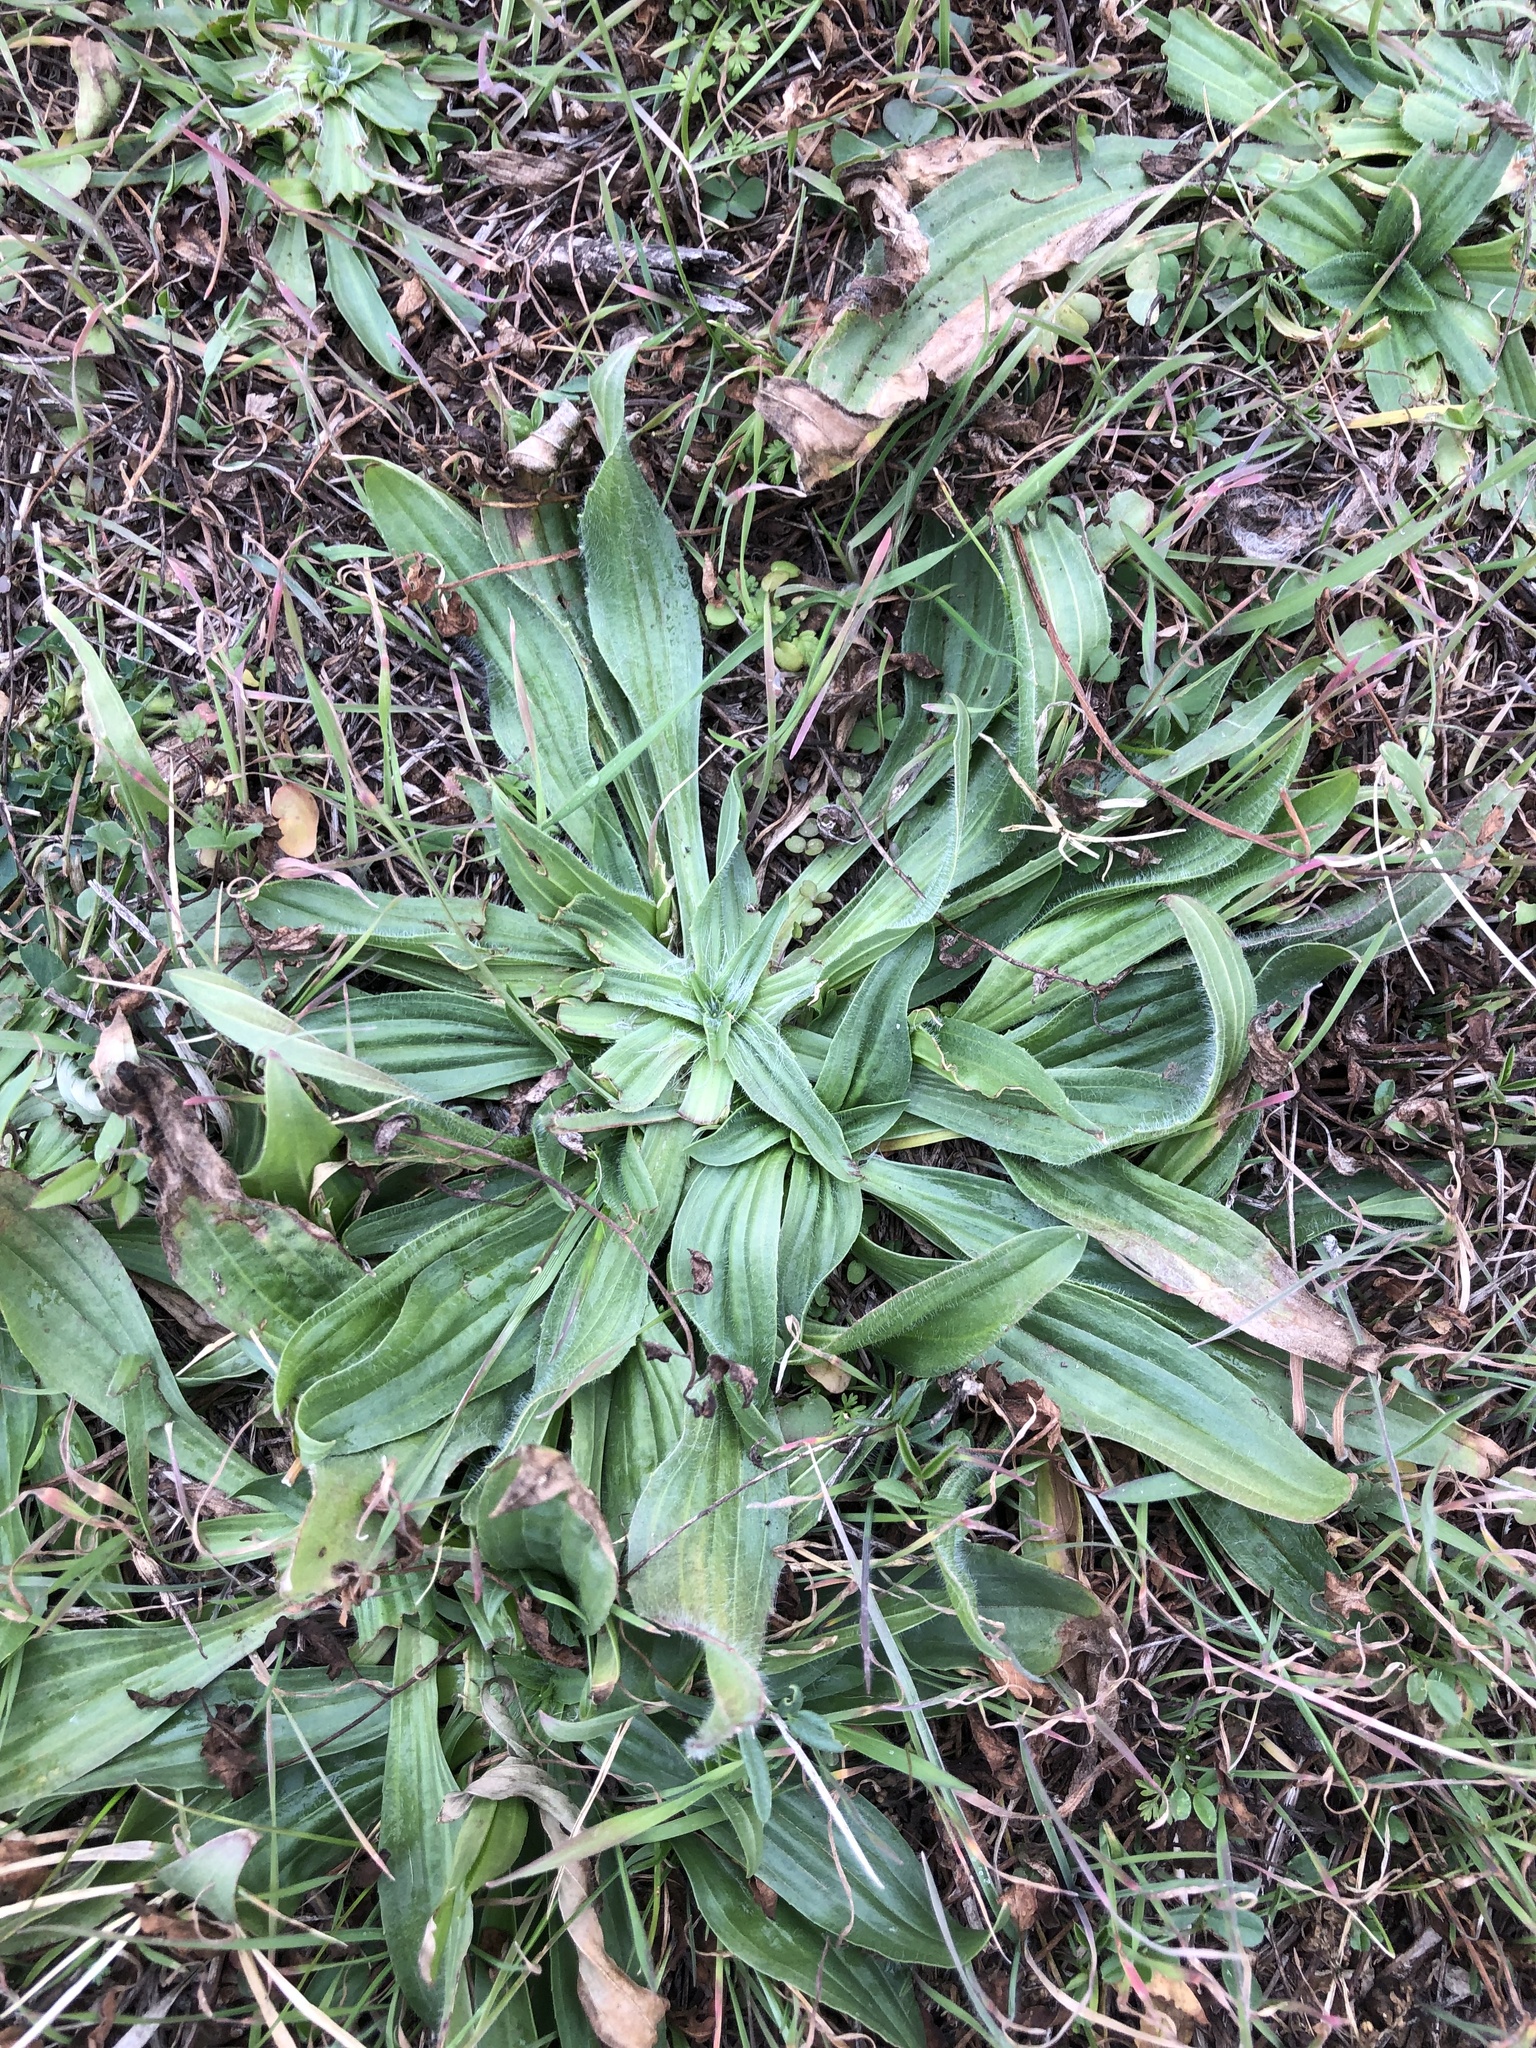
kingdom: Plantae
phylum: Tracheophyta
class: Magnoliopsida
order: Lamiales
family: Plantaginaceae
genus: Plantago
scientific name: Plantago lanceolata
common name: Ribwort plantain
